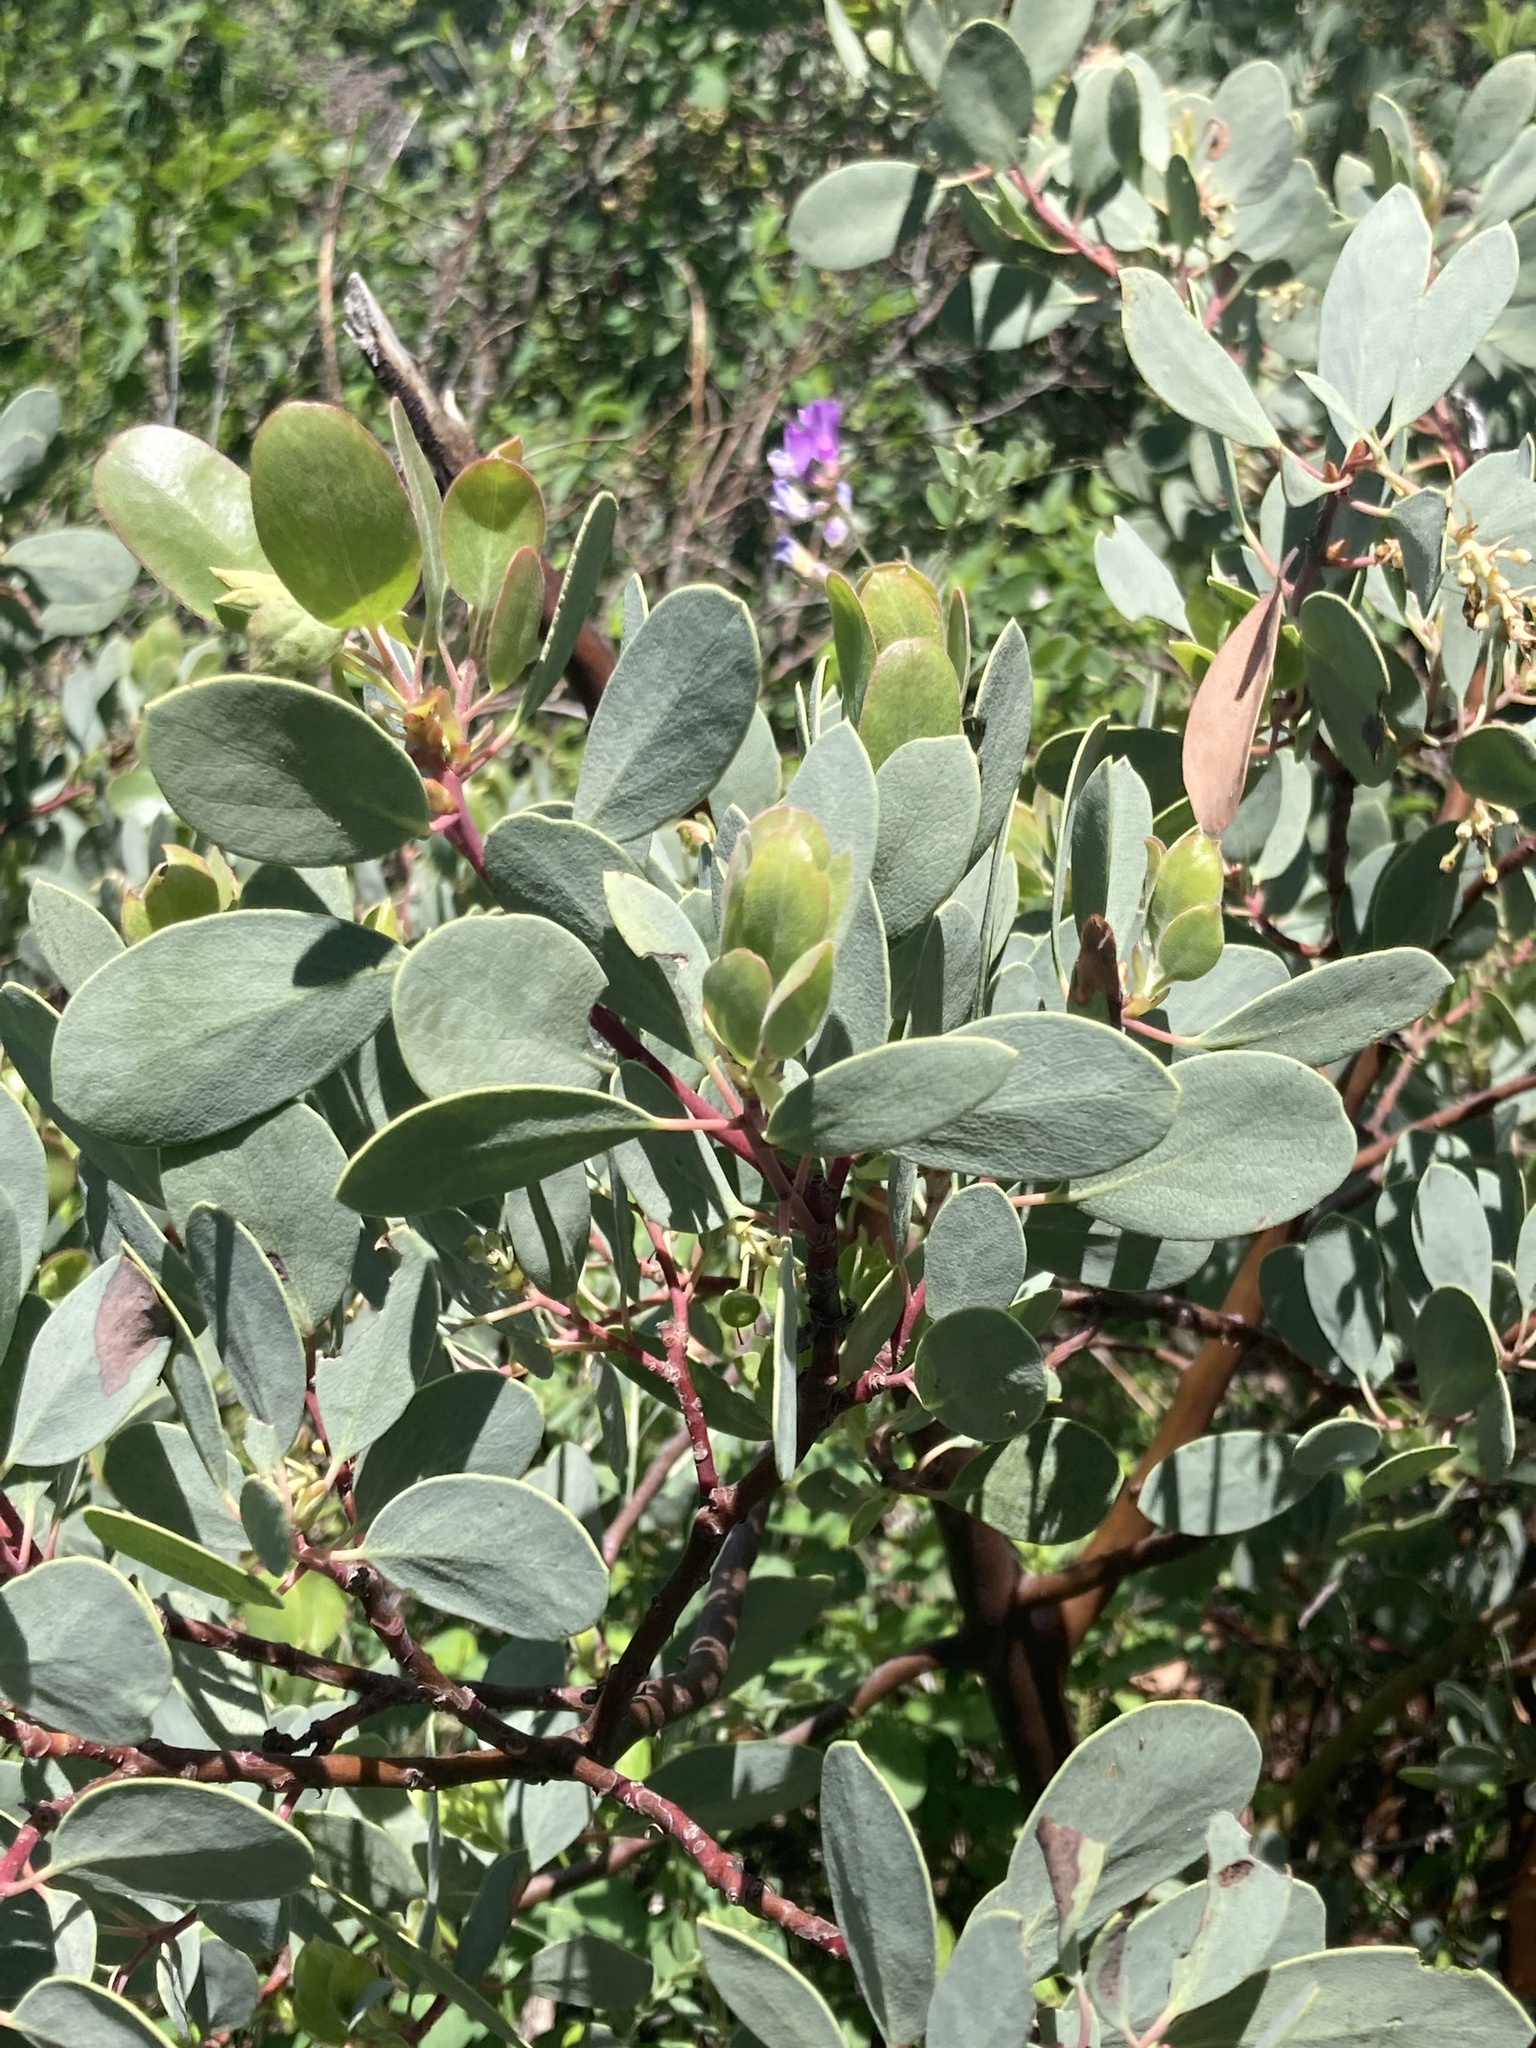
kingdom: Plantae
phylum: Tracheophyta
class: Magnoliopsida
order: Ericales
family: Ericaceae
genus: Arctostaphylos
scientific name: Arctostaphylos mewukka
